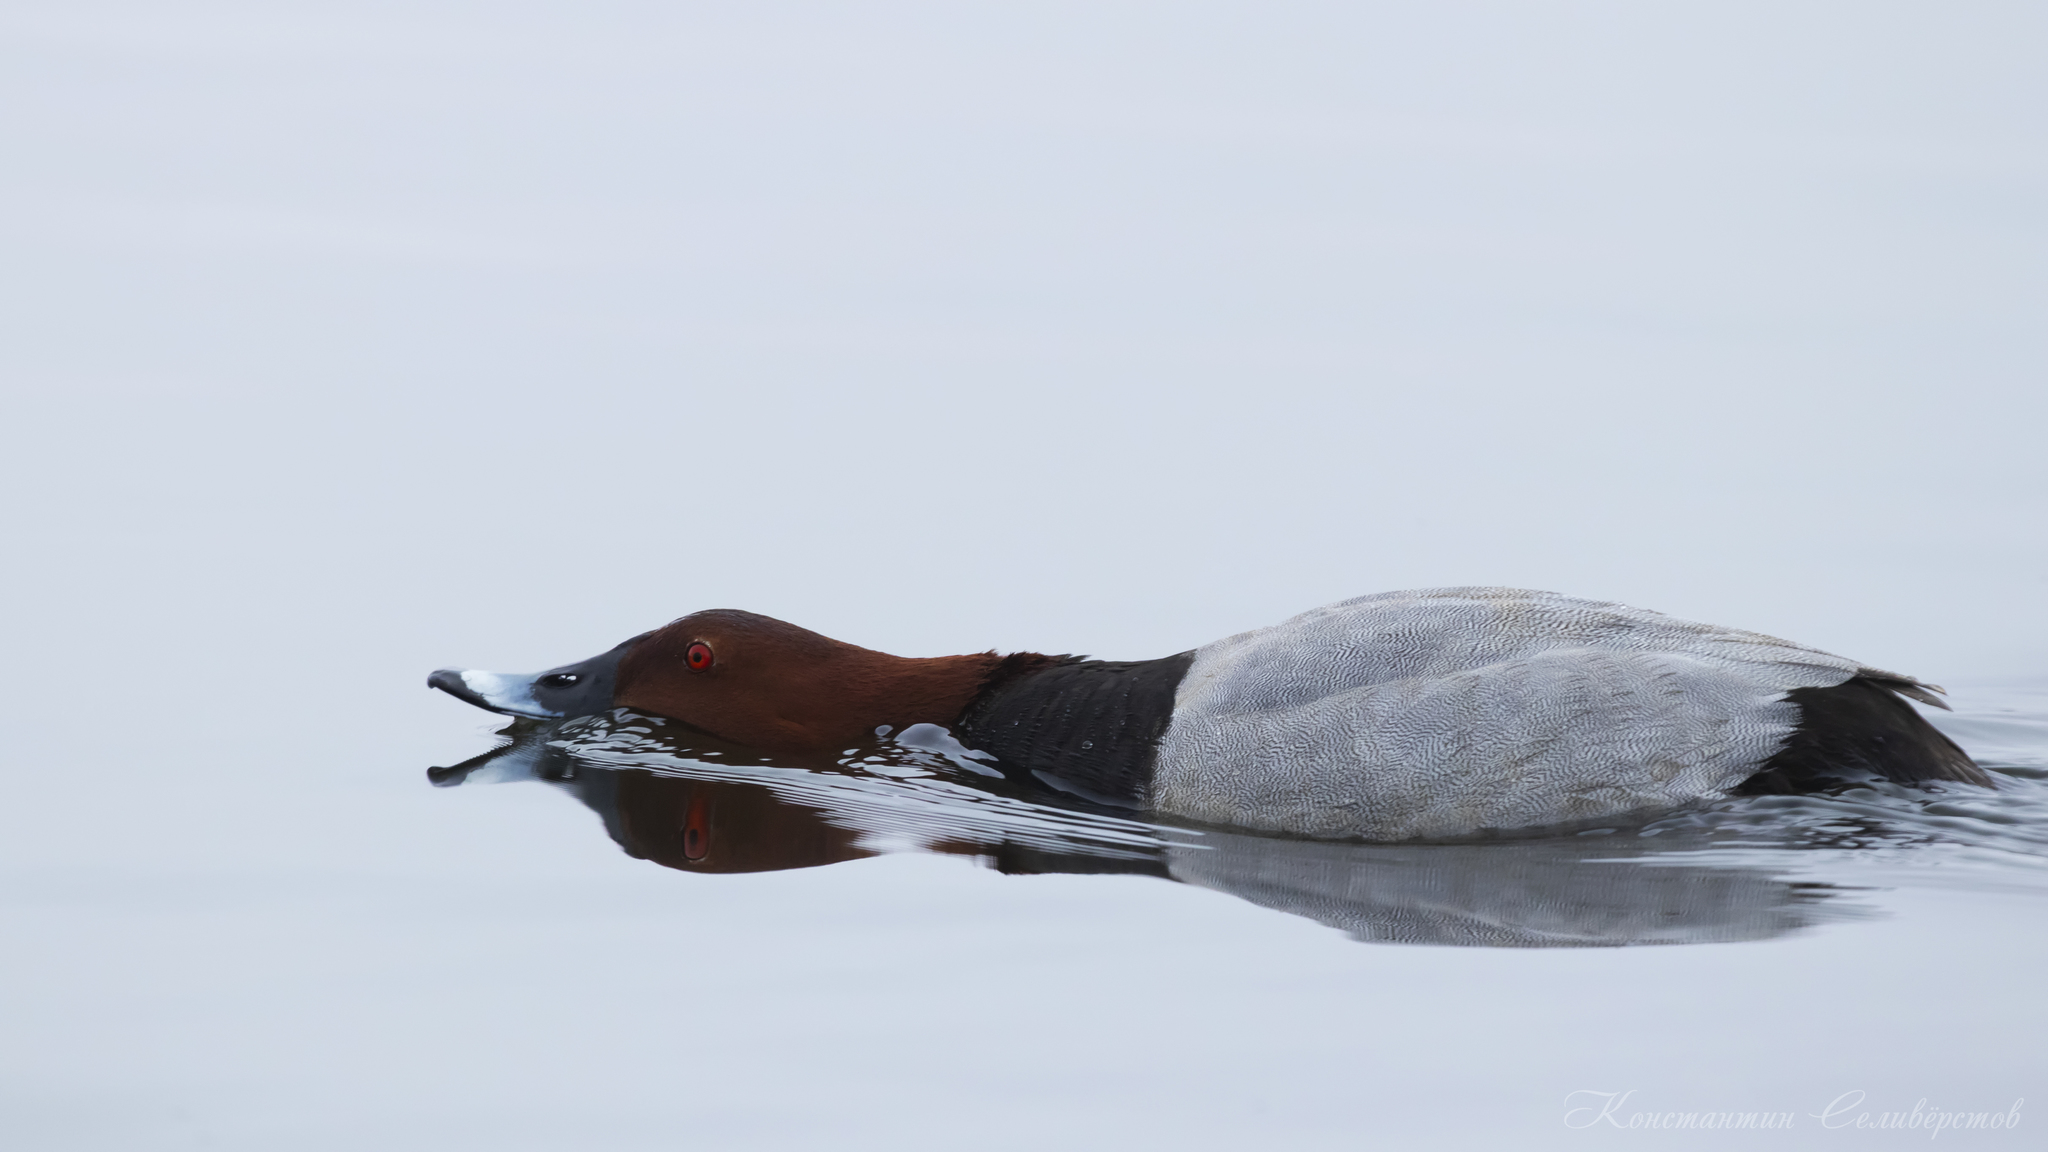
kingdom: Animalia
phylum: Chordata
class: Aves
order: Anseriformes
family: Anatidae
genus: Aythya
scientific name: Aythya ferina
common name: Common pochard
